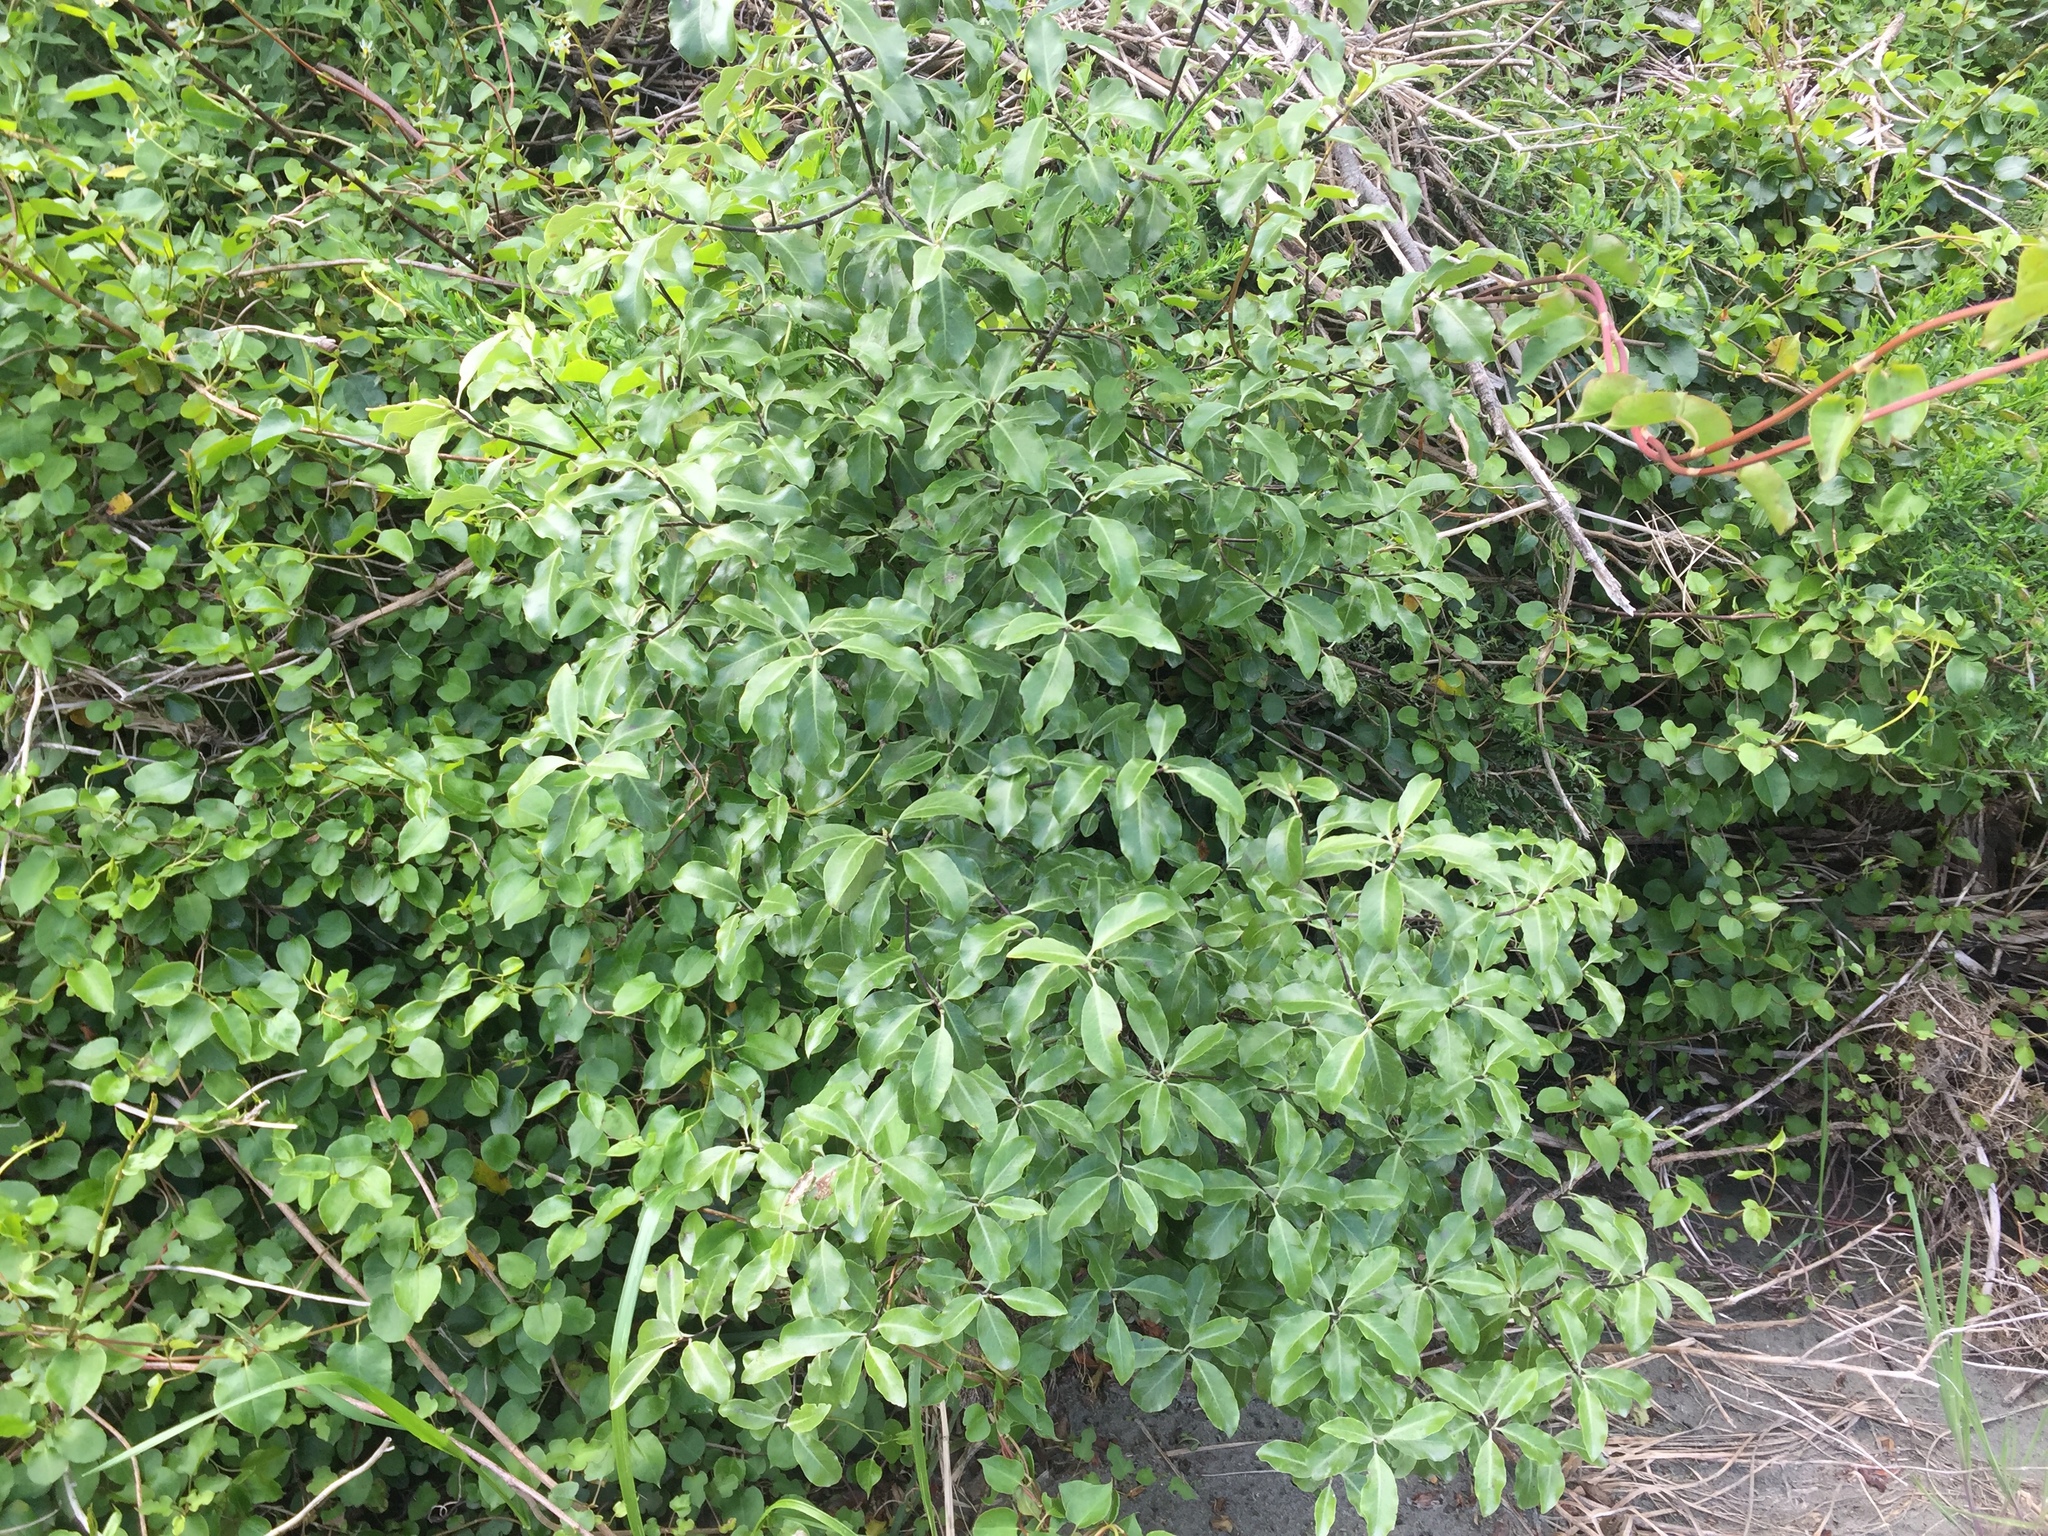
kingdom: Plantae
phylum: Tracheophyta
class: Magnoliopsida
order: Apiales
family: Pittosporaceae
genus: Pittosporum
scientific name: Pittosporum tenuifolium
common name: Kohuhu
